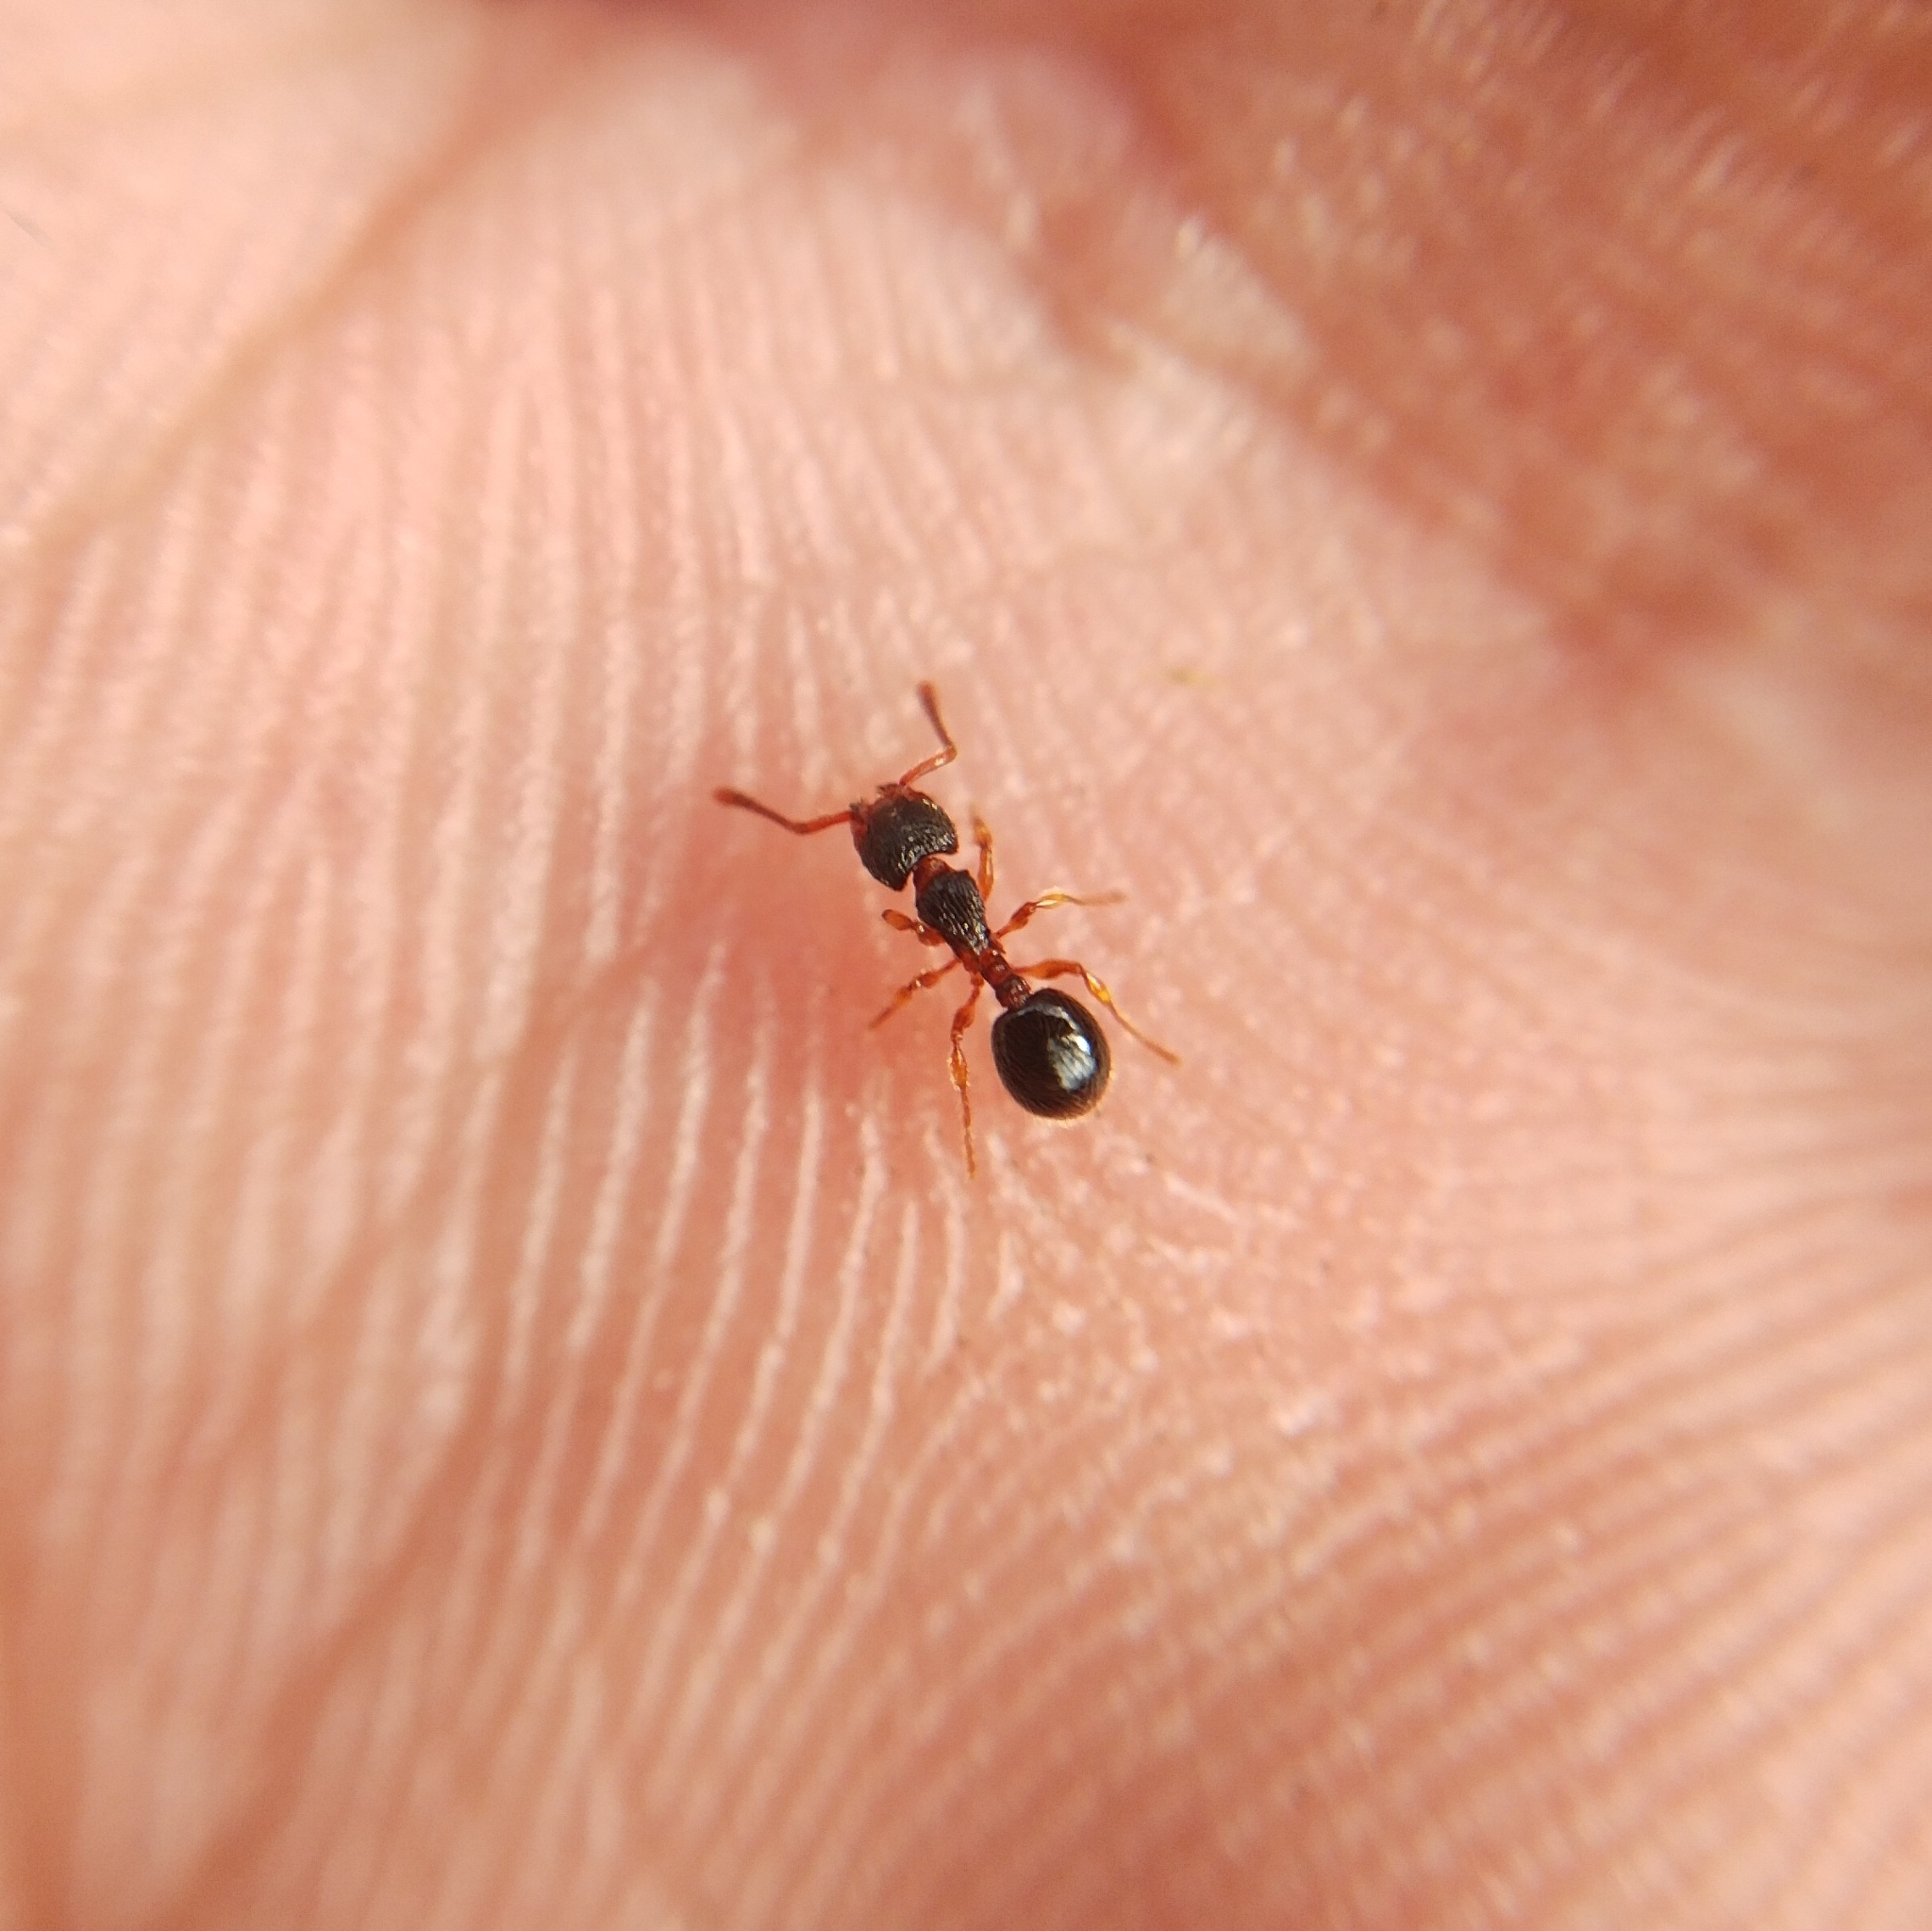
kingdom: Animalia
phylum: Arthropoda
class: Insecta
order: Hymenoptera
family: Formicidae
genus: Myrmecina
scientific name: Myrmecina graminicola
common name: Grass ant
